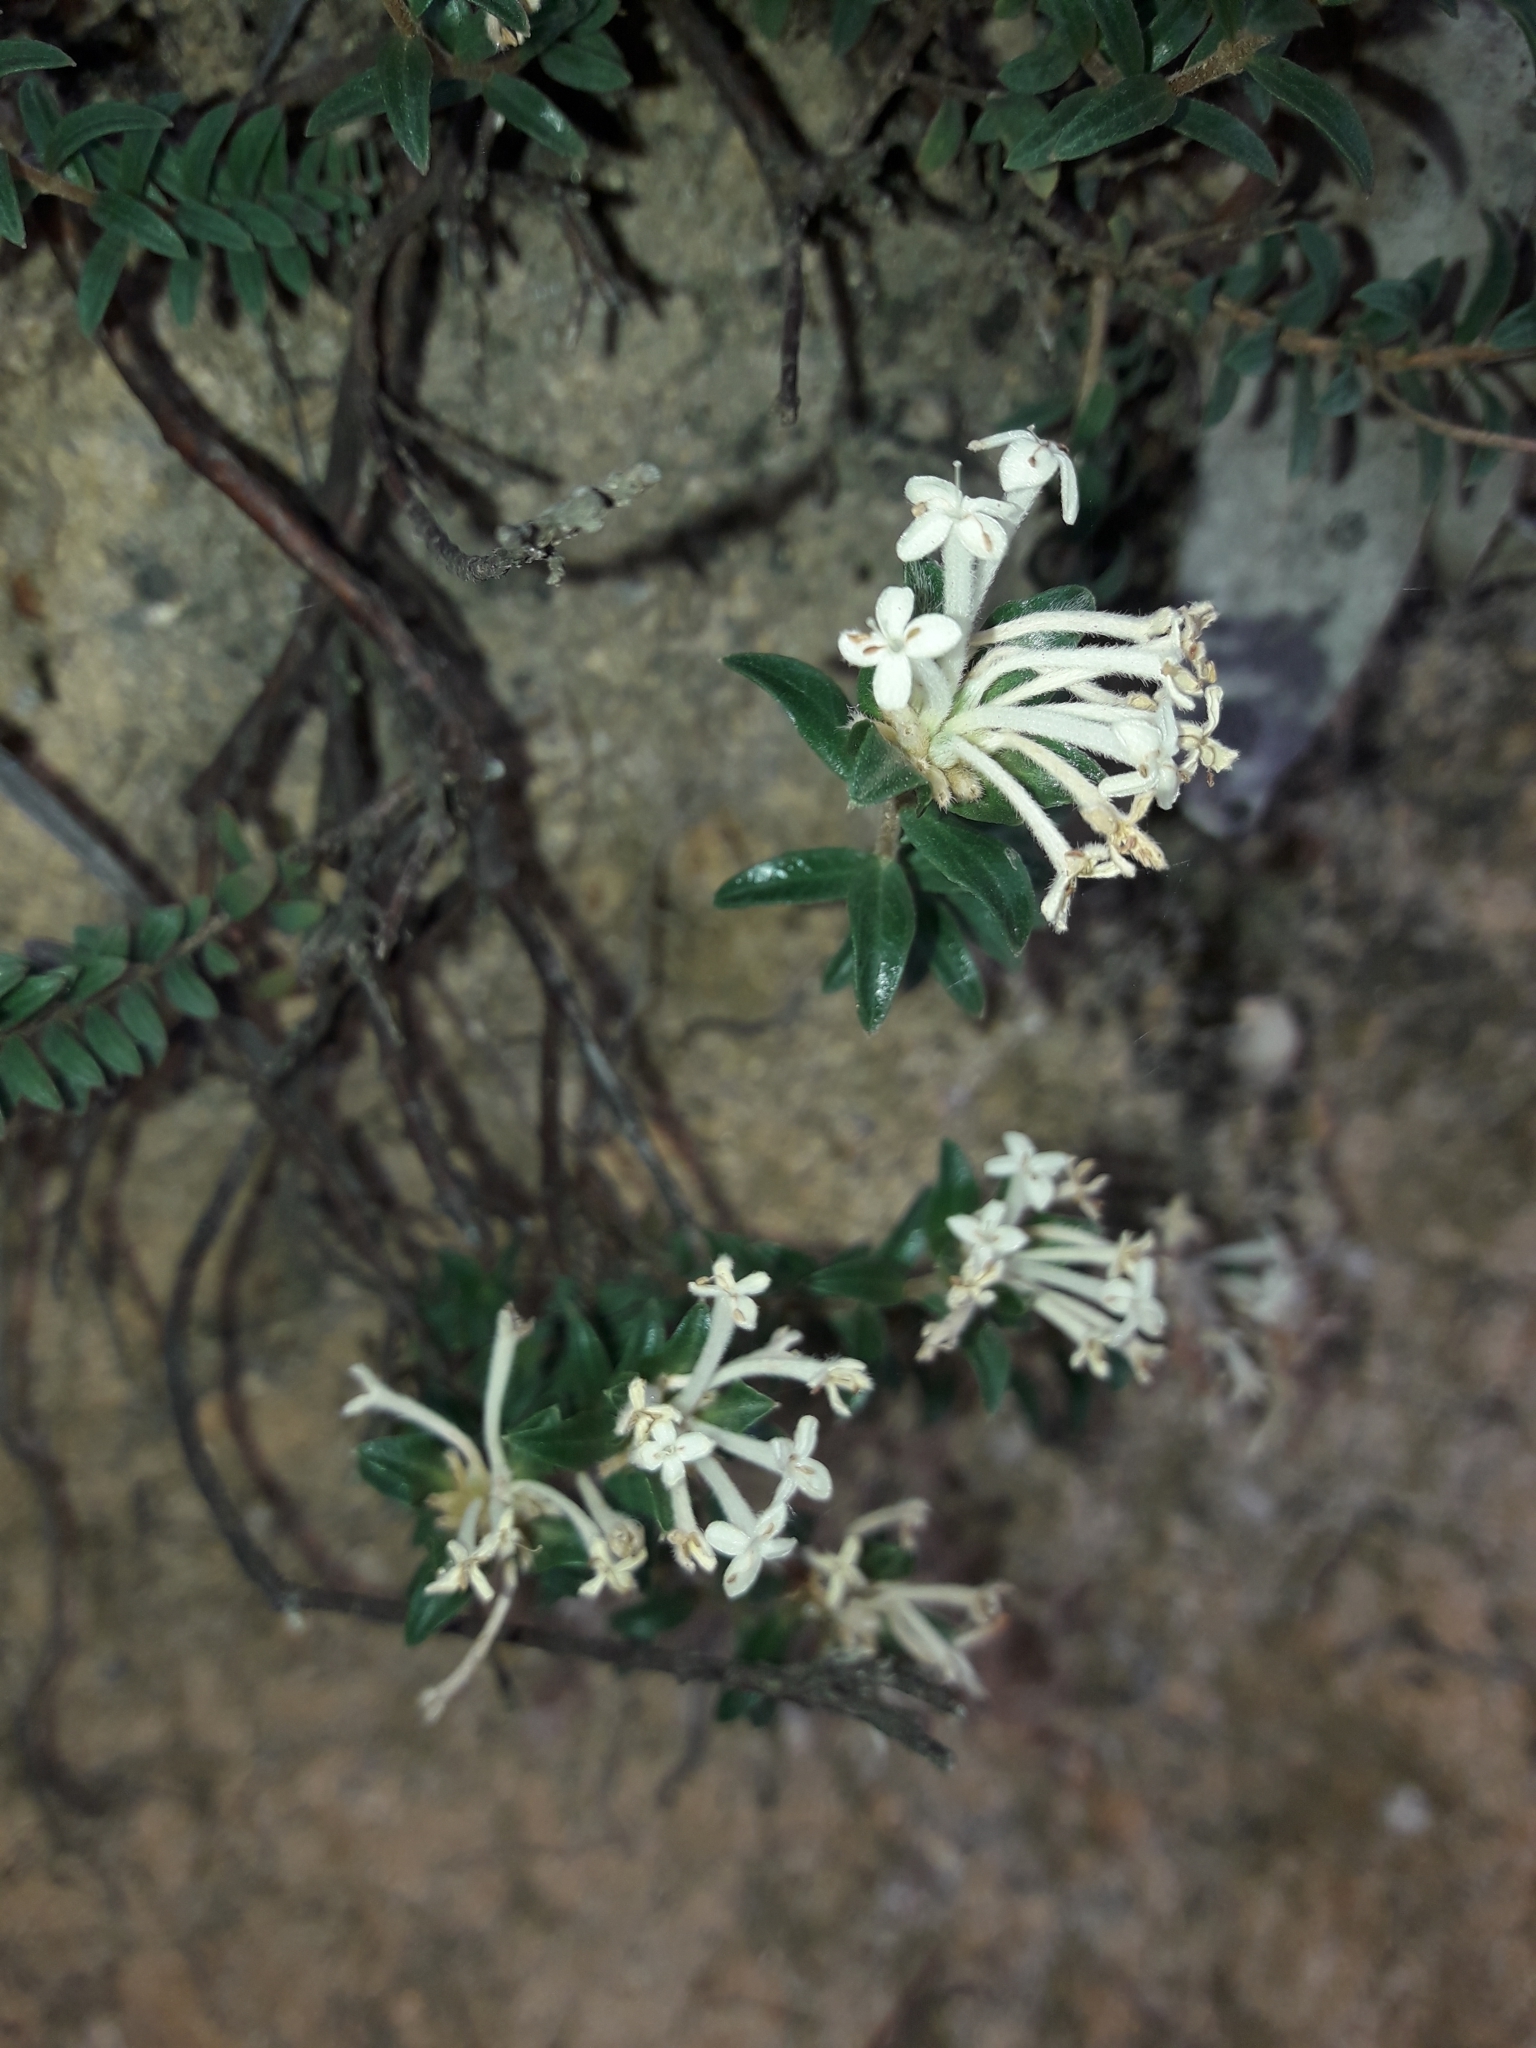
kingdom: Plantae
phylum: Tracheophyta
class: Magnoliopsida
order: Malvales
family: Thymelaeaceae
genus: Pimelea
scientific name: Pimelea humilis
